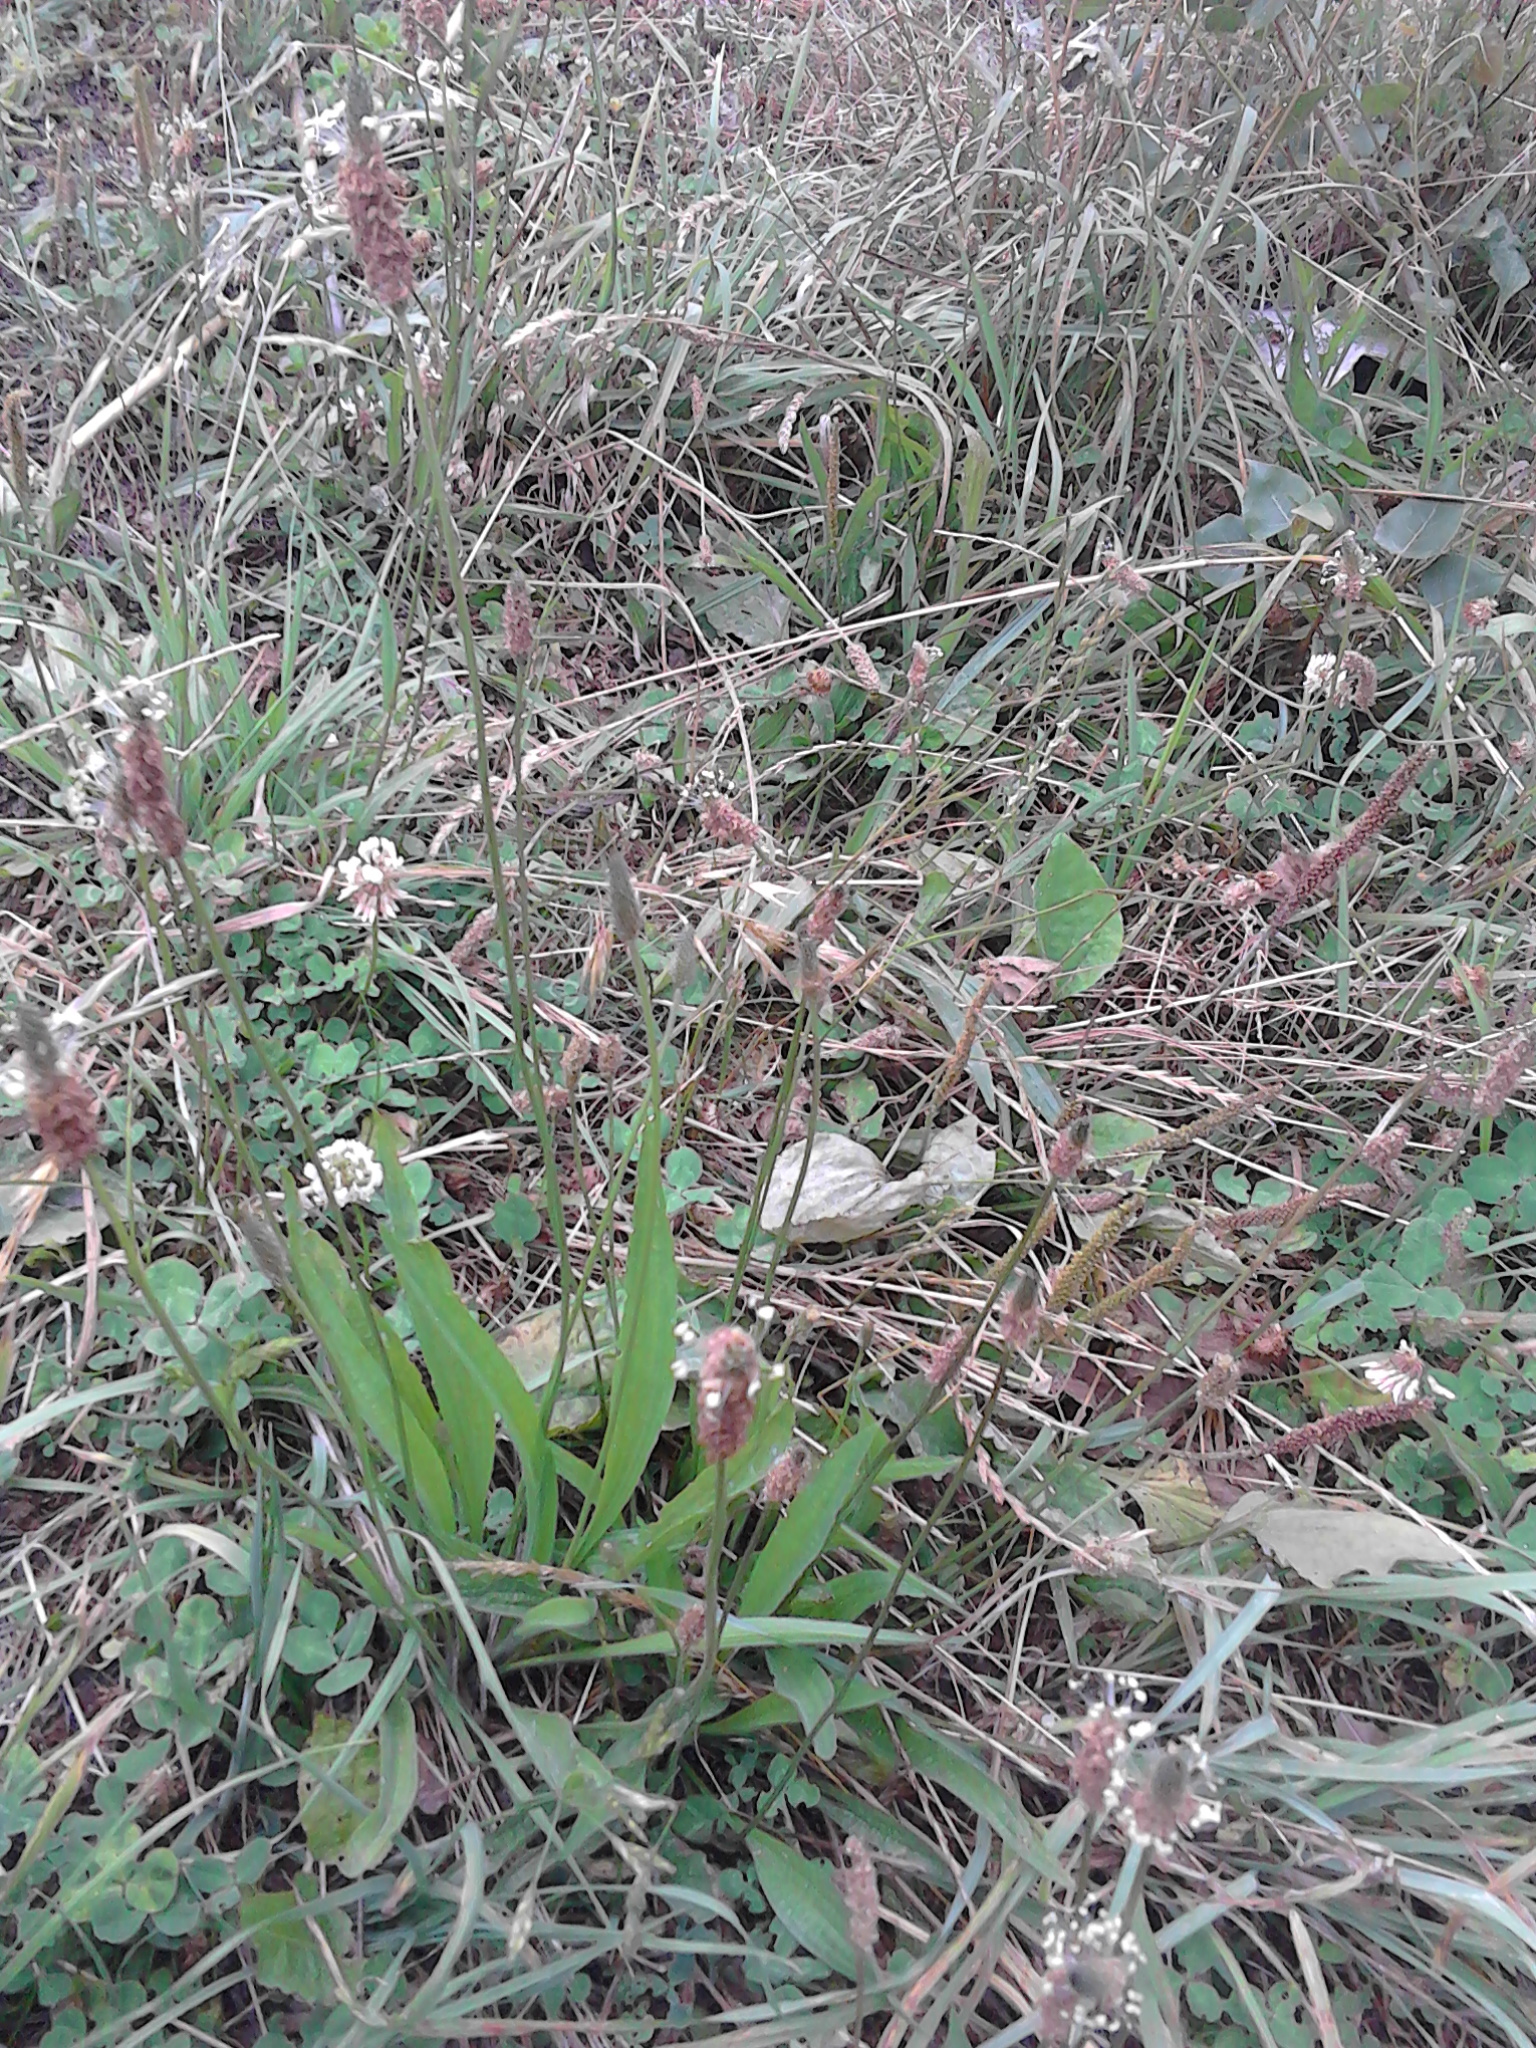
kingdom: Plantae
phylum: Tracheophyta
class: Magnoliopsida
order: Lamiales
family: Plantaginaceae
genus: Plantago
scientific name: Plantago lanceolata
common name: Ribwort plantain
